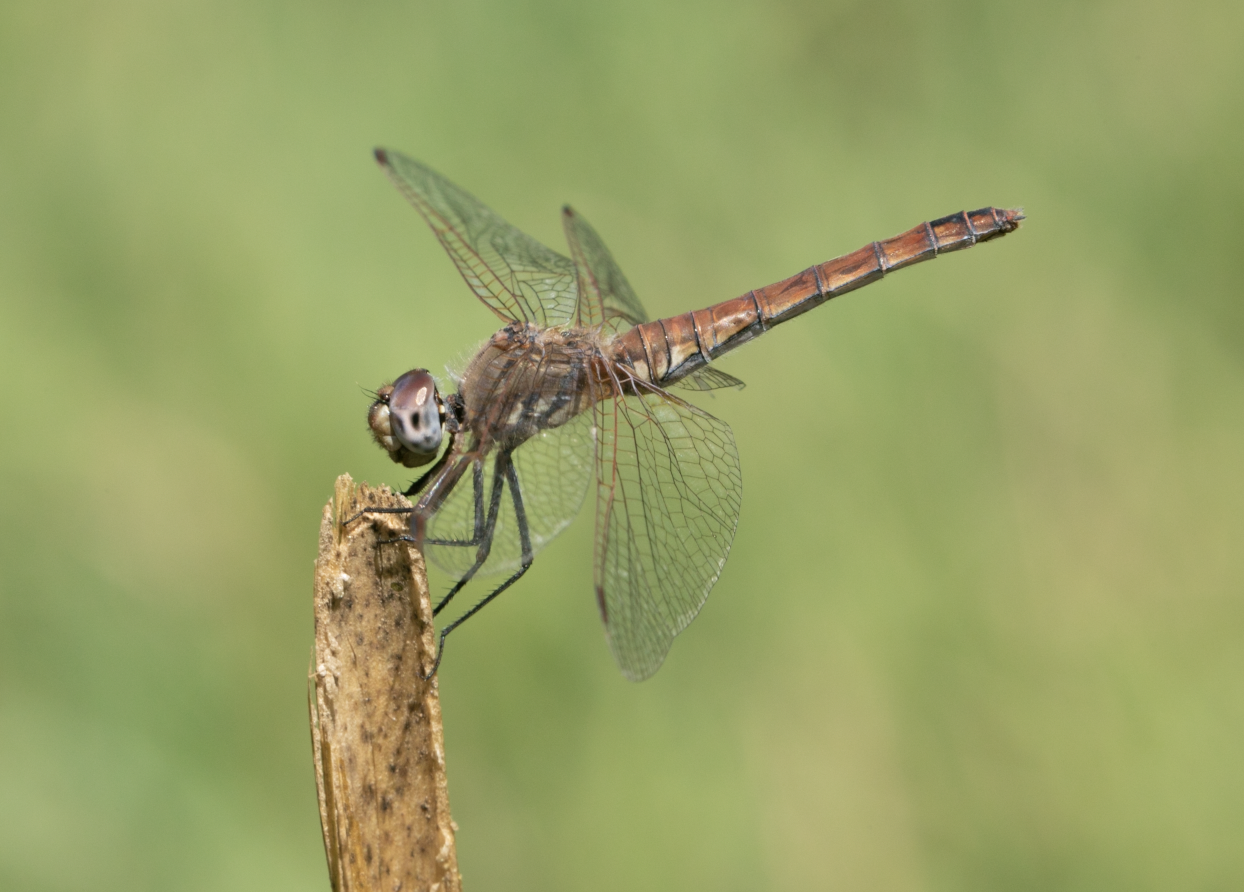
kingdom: Animalia
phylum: Arthropoda
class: Insecta
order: Odonata
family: Libellulidae
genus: Trithemis
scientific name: Trithemis annulata
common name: Violet dropwing
